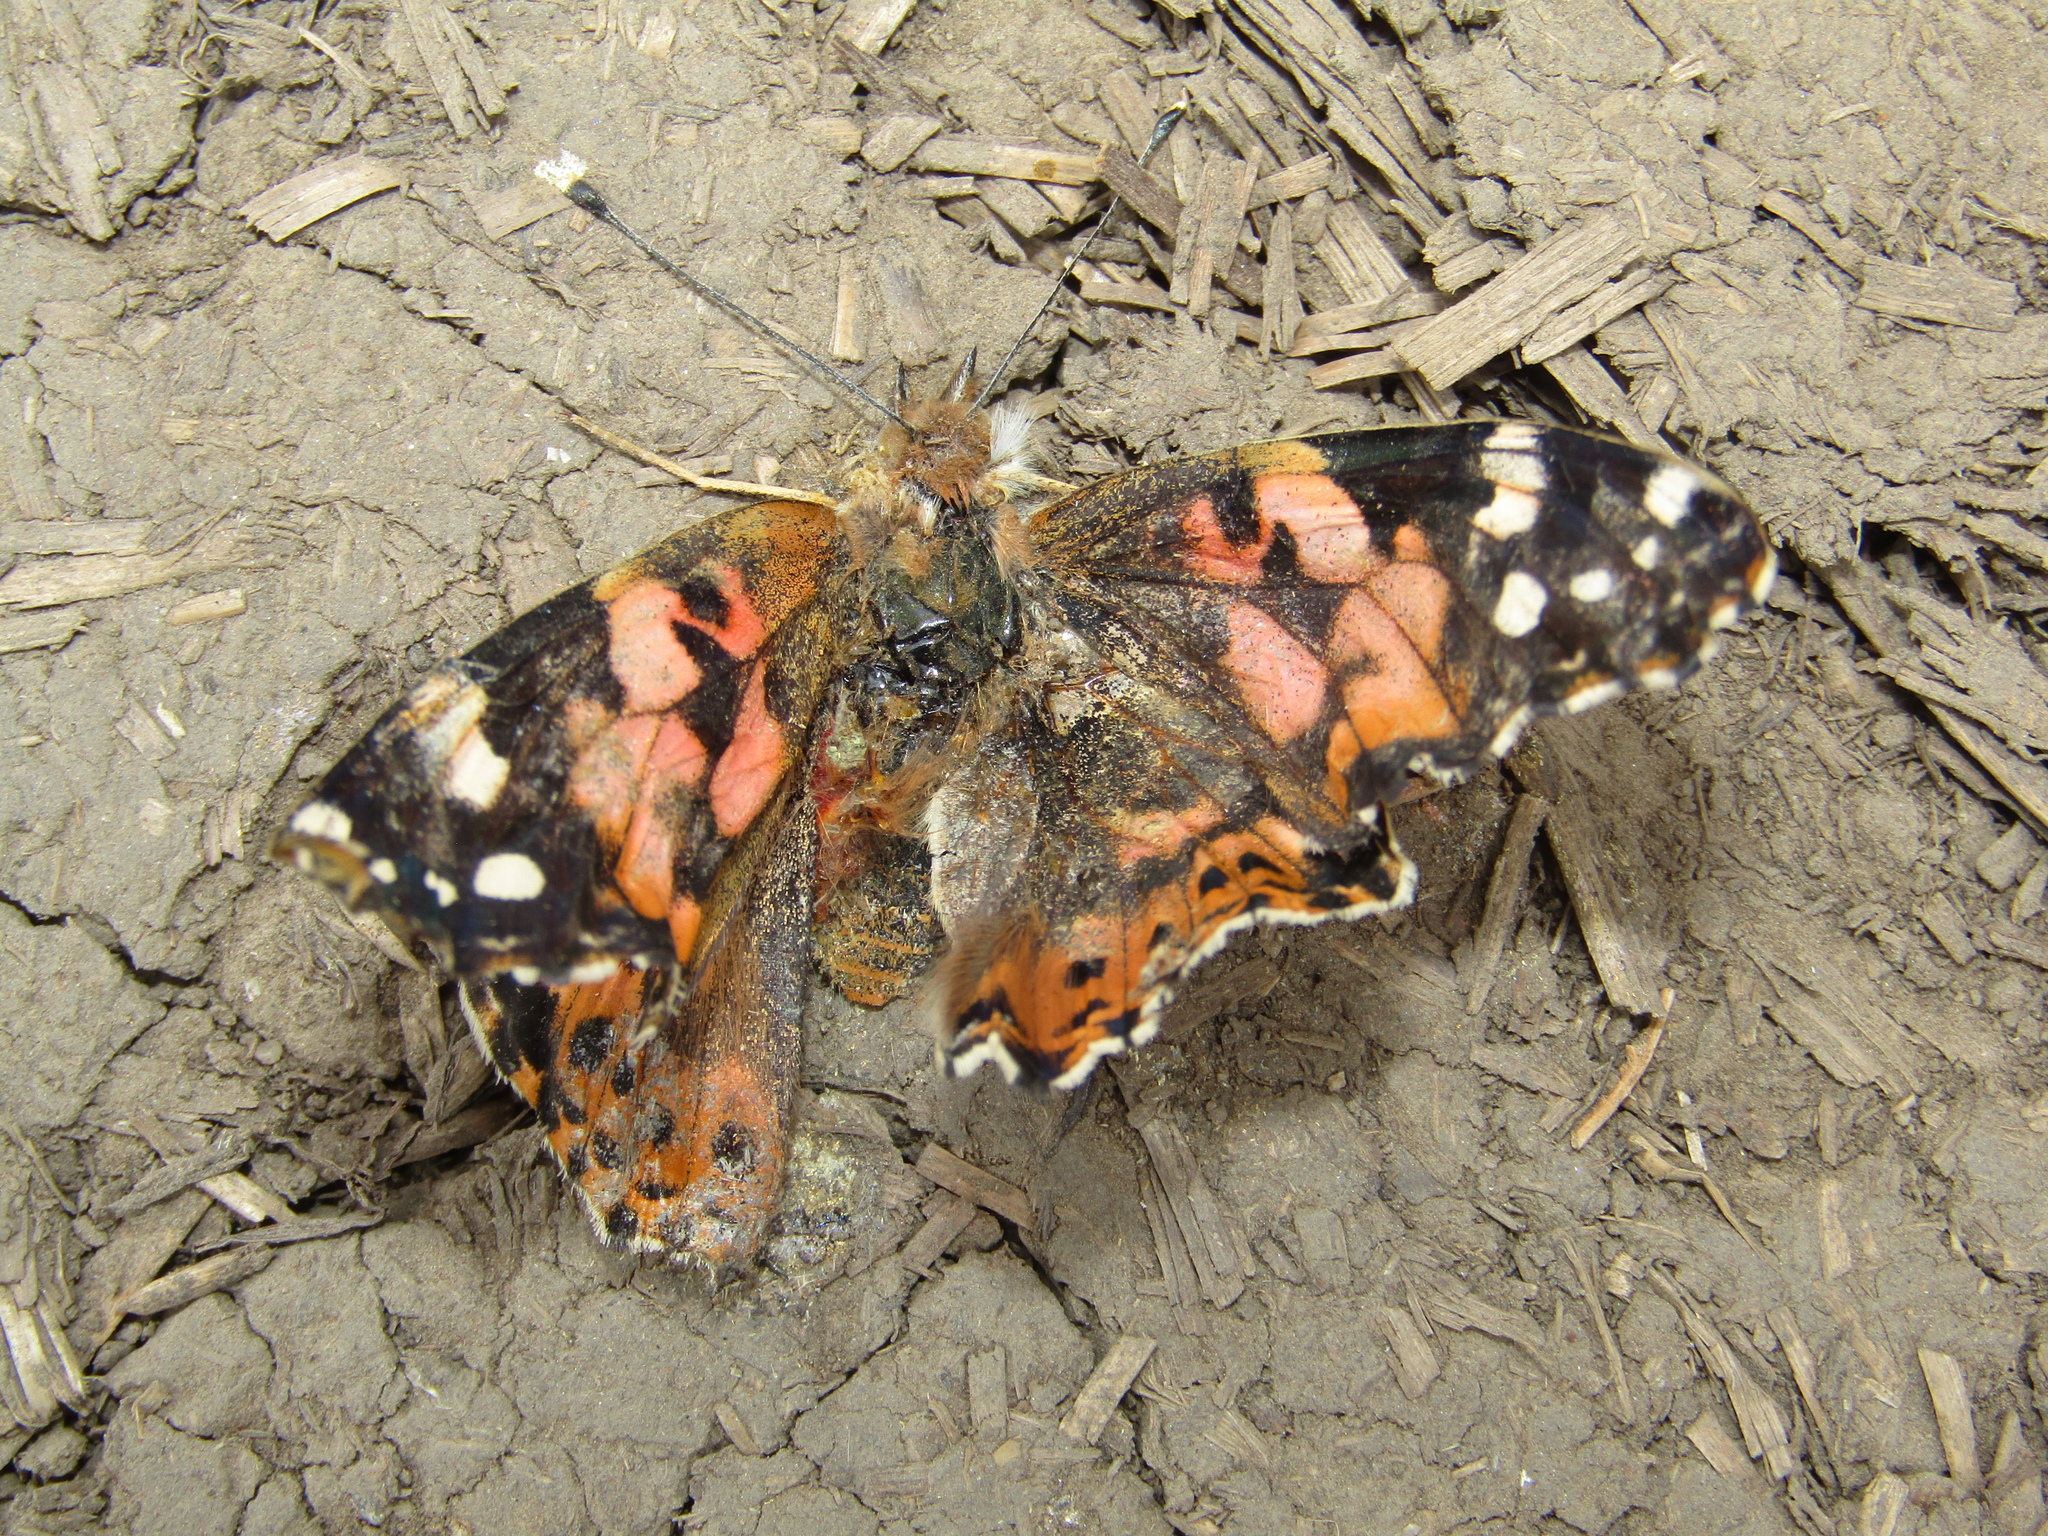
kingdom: Animalia
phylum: Arthropoda
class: Insecta
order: Lepidoptera
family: Nymphalidae
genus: Vanessa
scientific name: Vanessa cardui
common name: Painted lady
